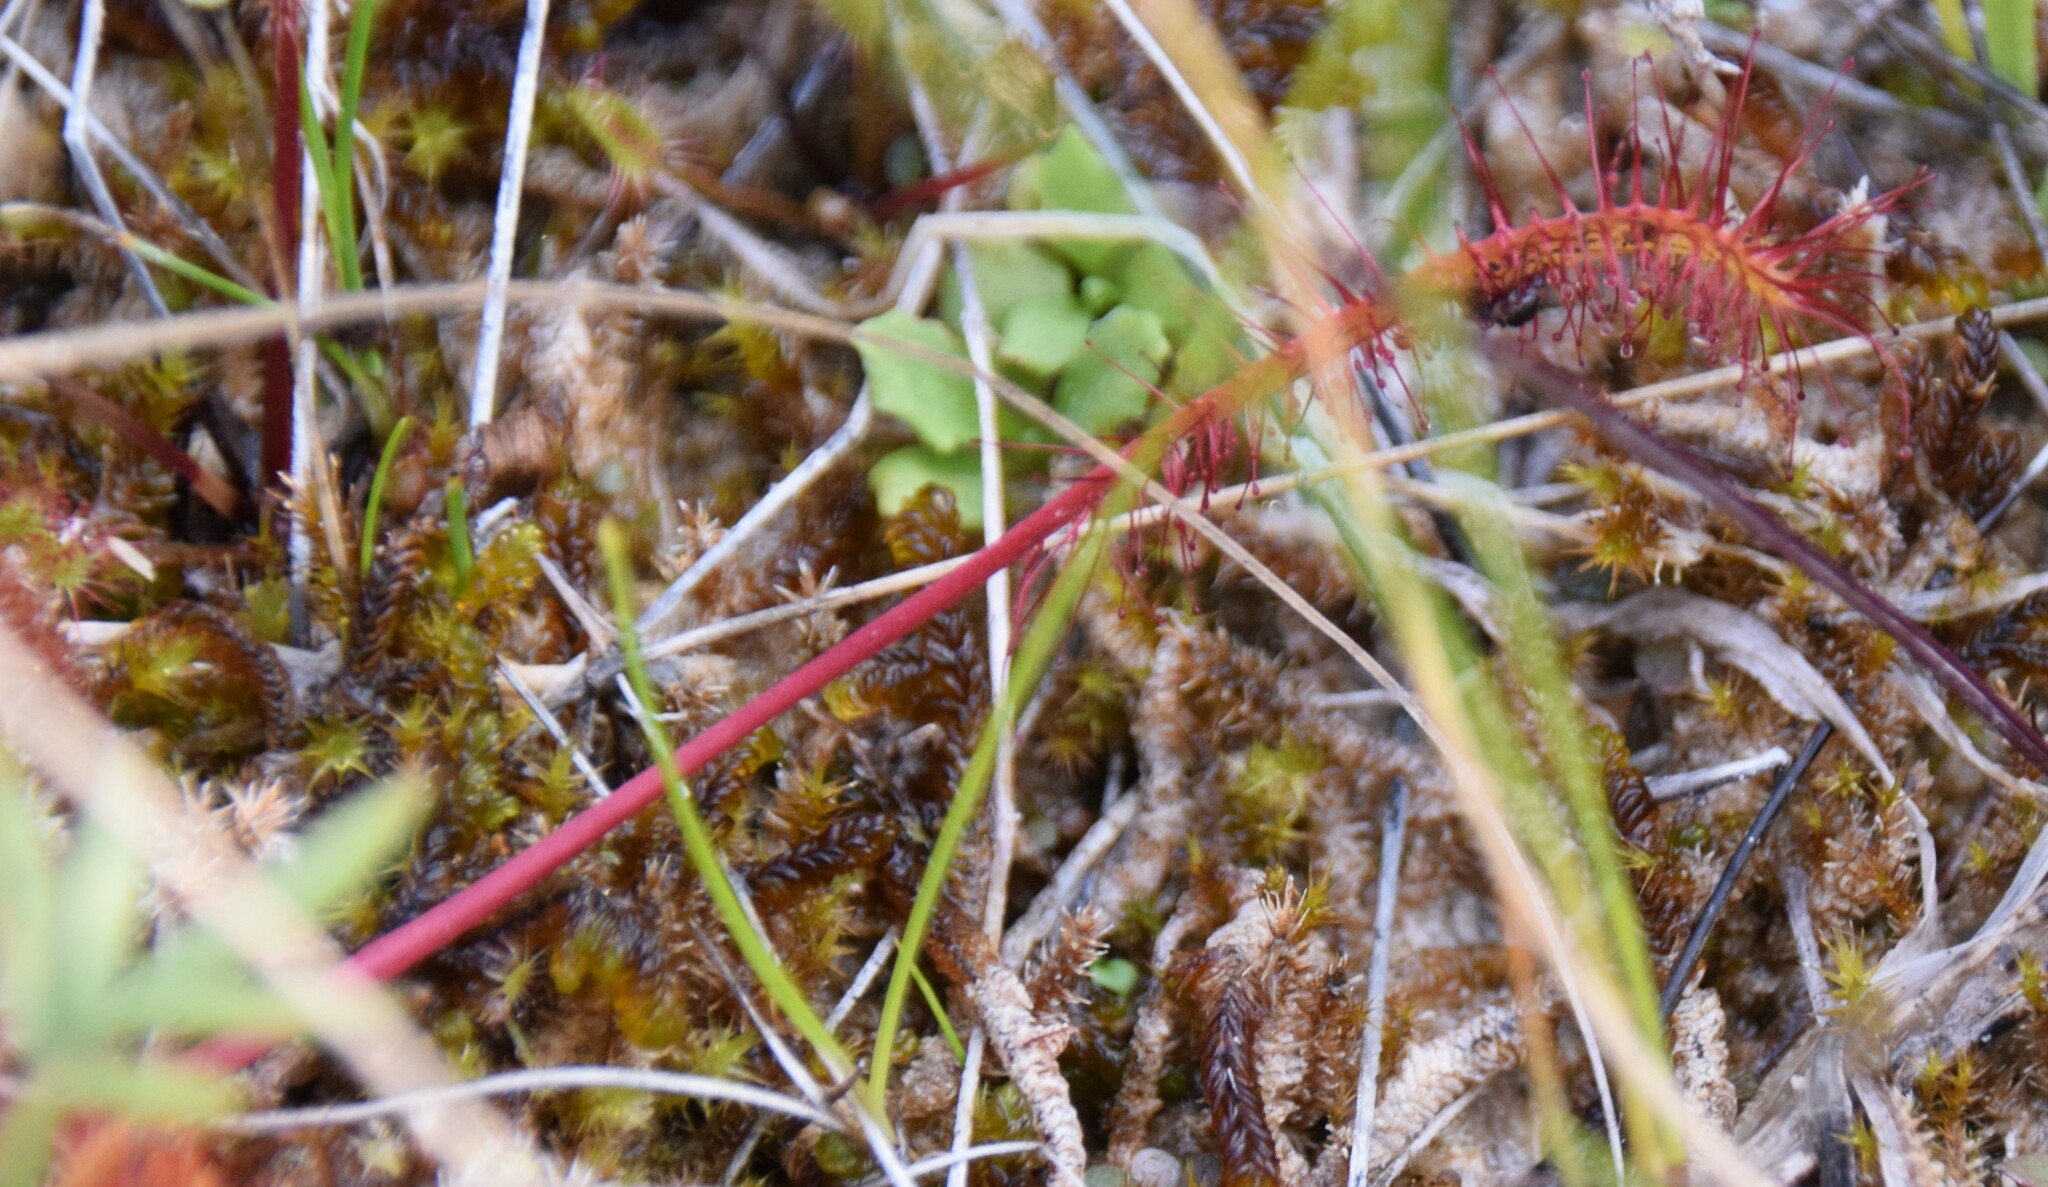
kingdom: Plantae
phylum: Tracheophyta
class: Magnoliopsida
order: Caryophyllales
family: Droseraceae
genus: Drosera
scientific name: Drosera anglica
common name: Great sundew
